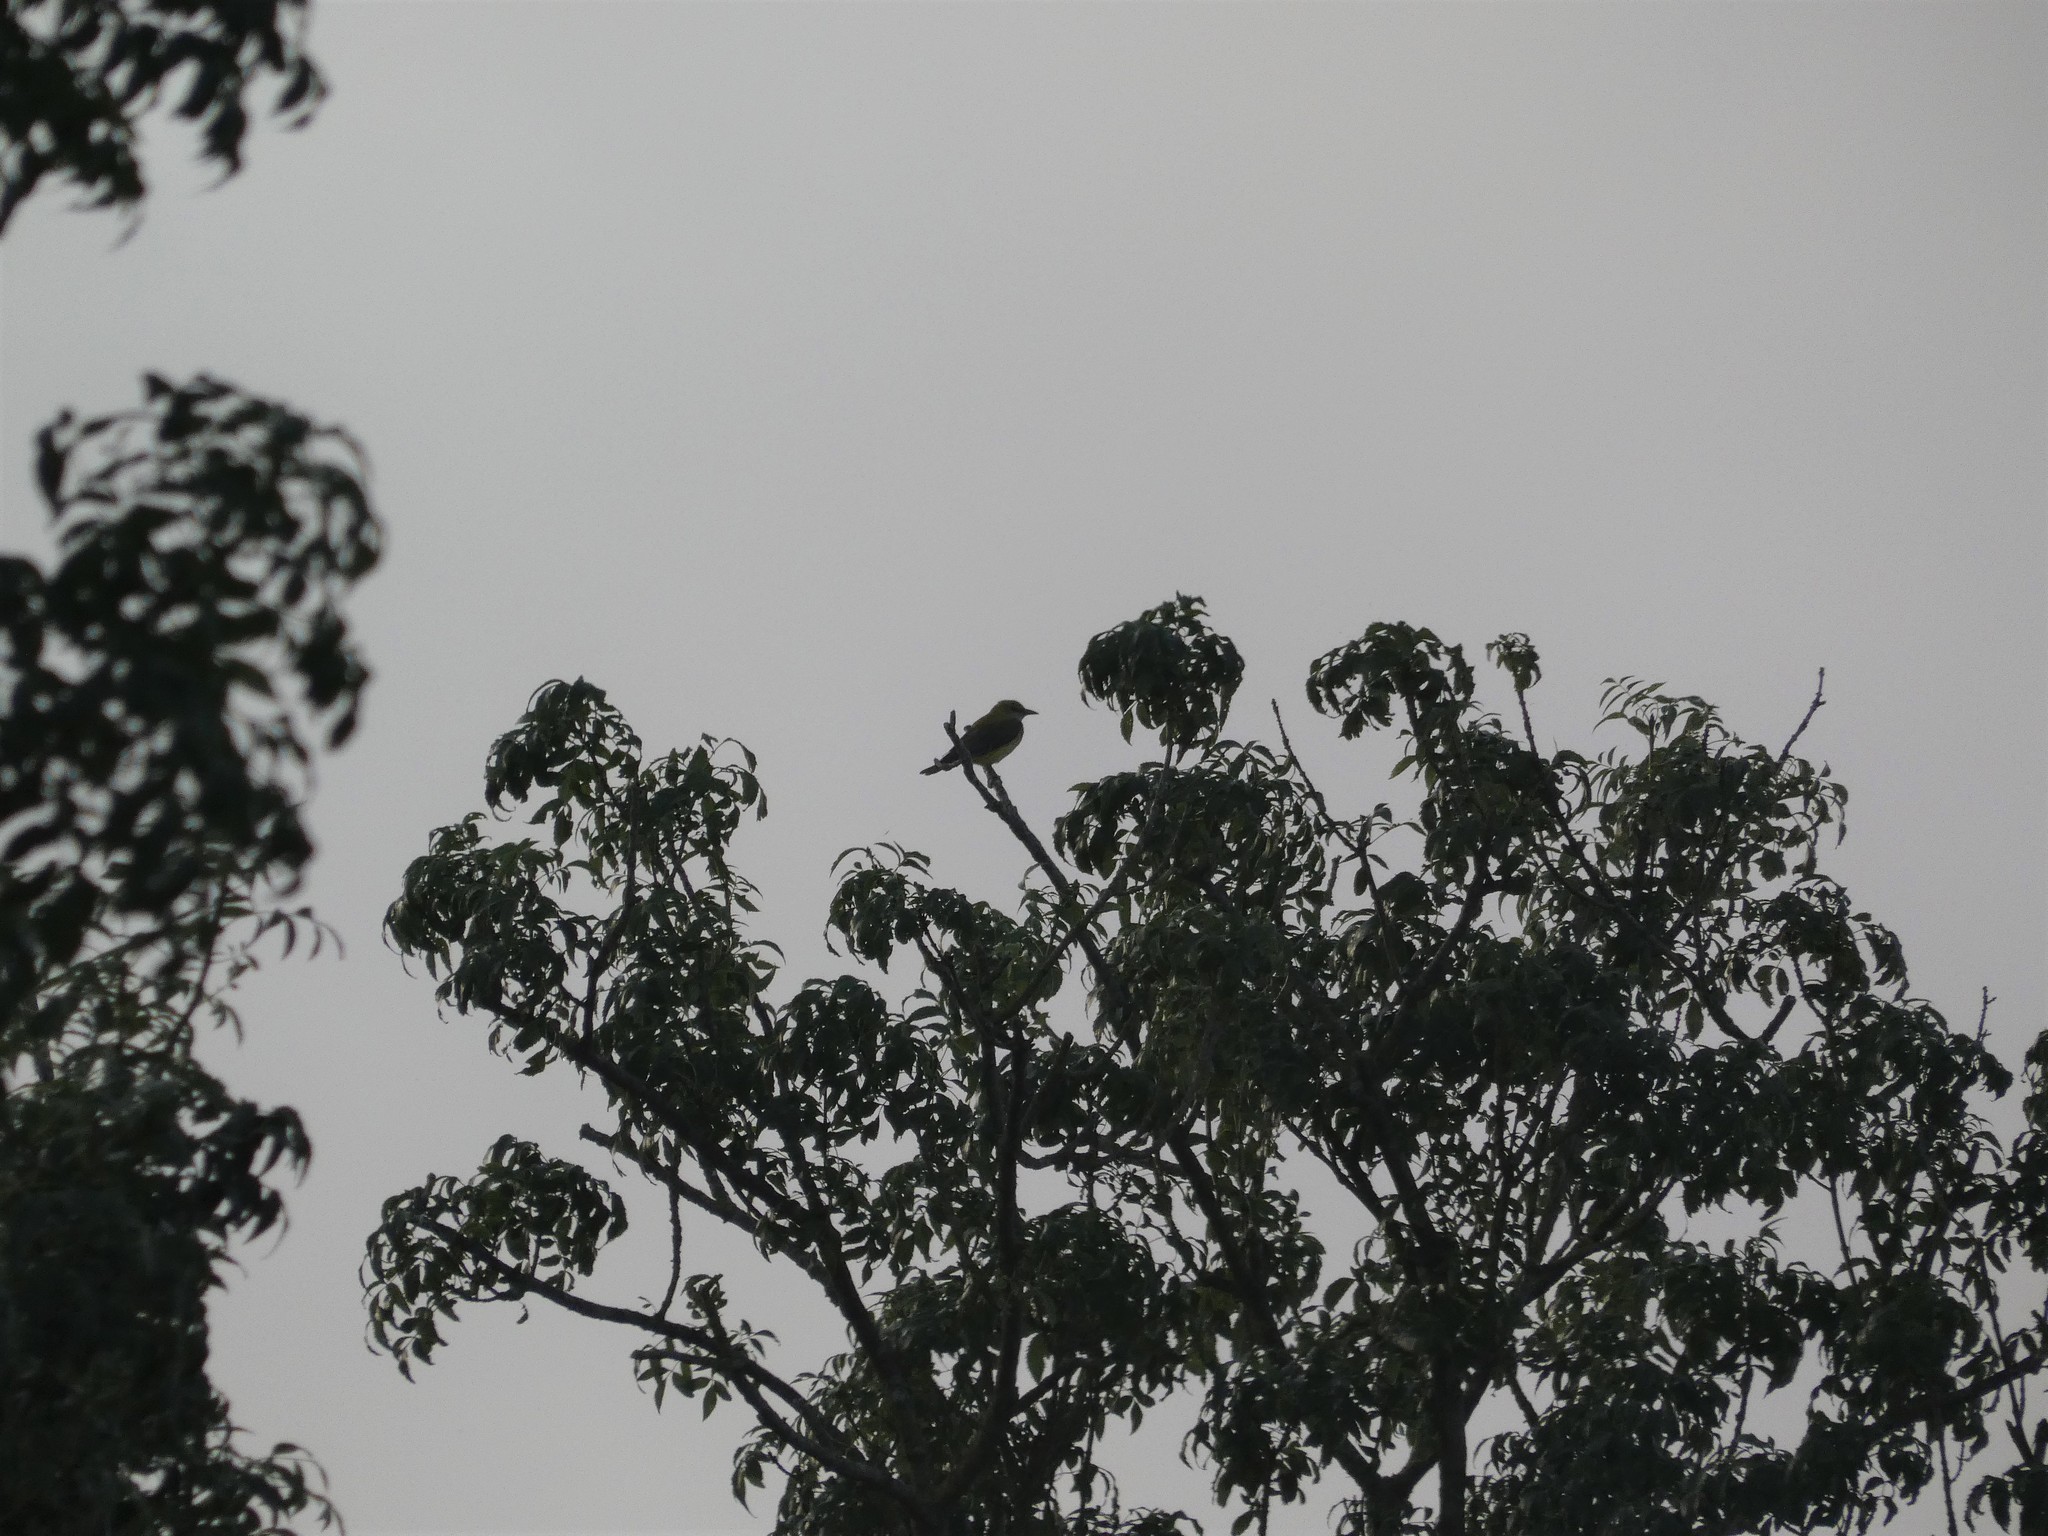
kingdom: Animalia
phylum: Chordata
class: Aves
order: Passeriformes
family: Oriolidae
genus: Oriolus
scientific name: Oriolus oriolus
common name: Eurasian golden oriole
